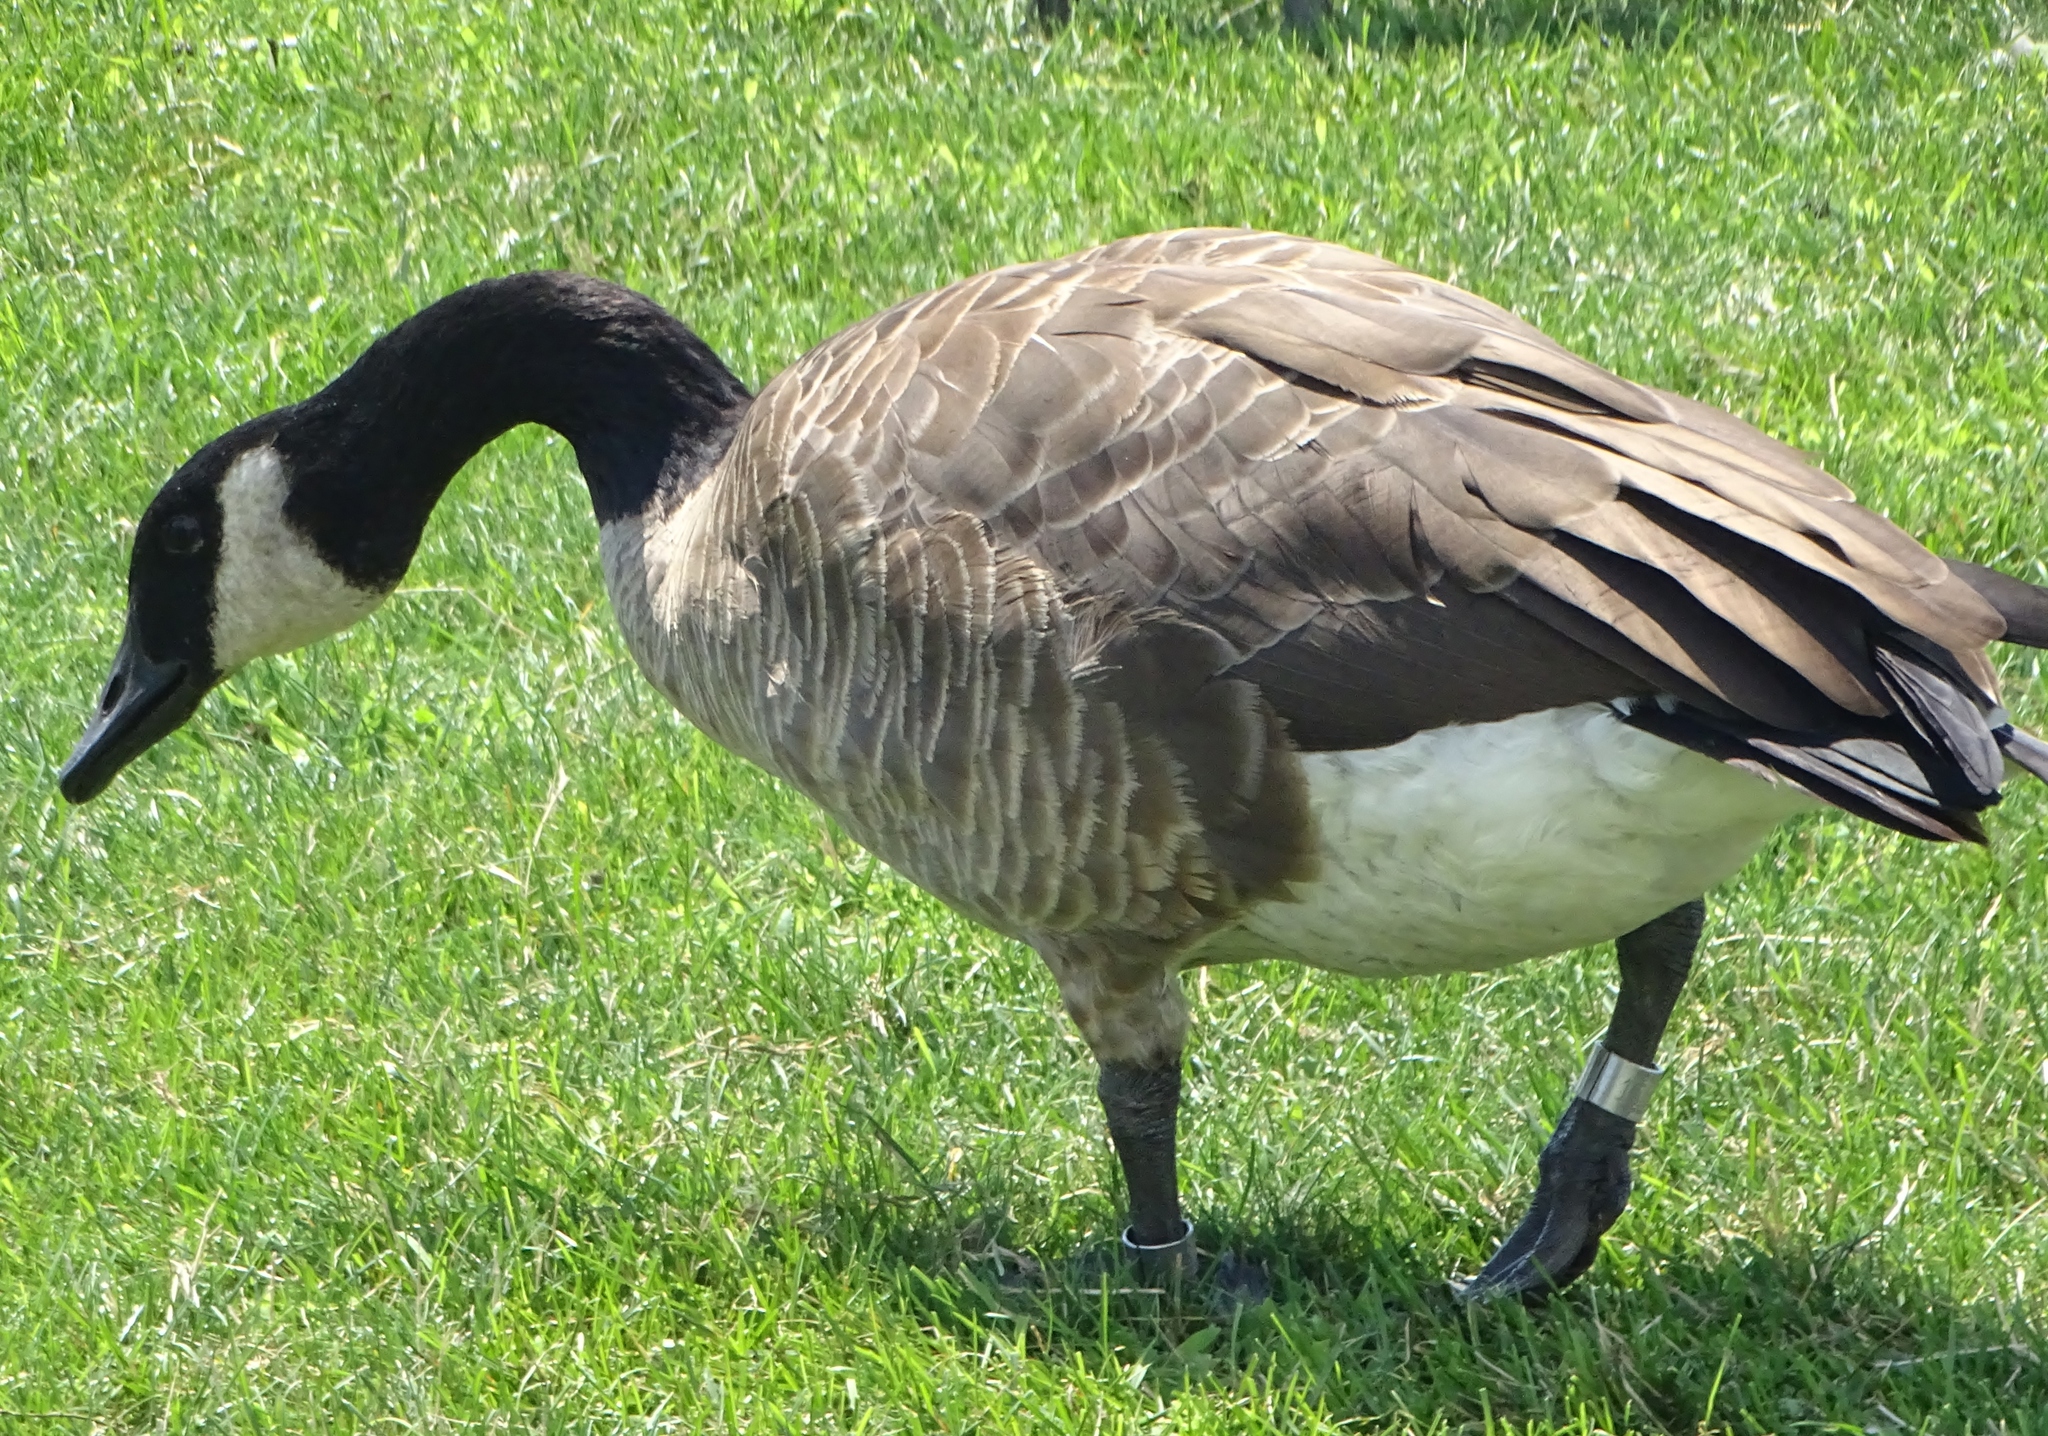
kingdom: Animalia
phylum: Chordata
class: Aves
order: Anseriformes
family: Anatidae
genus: Branta
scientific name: Branta canadensis
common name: Canada goose
